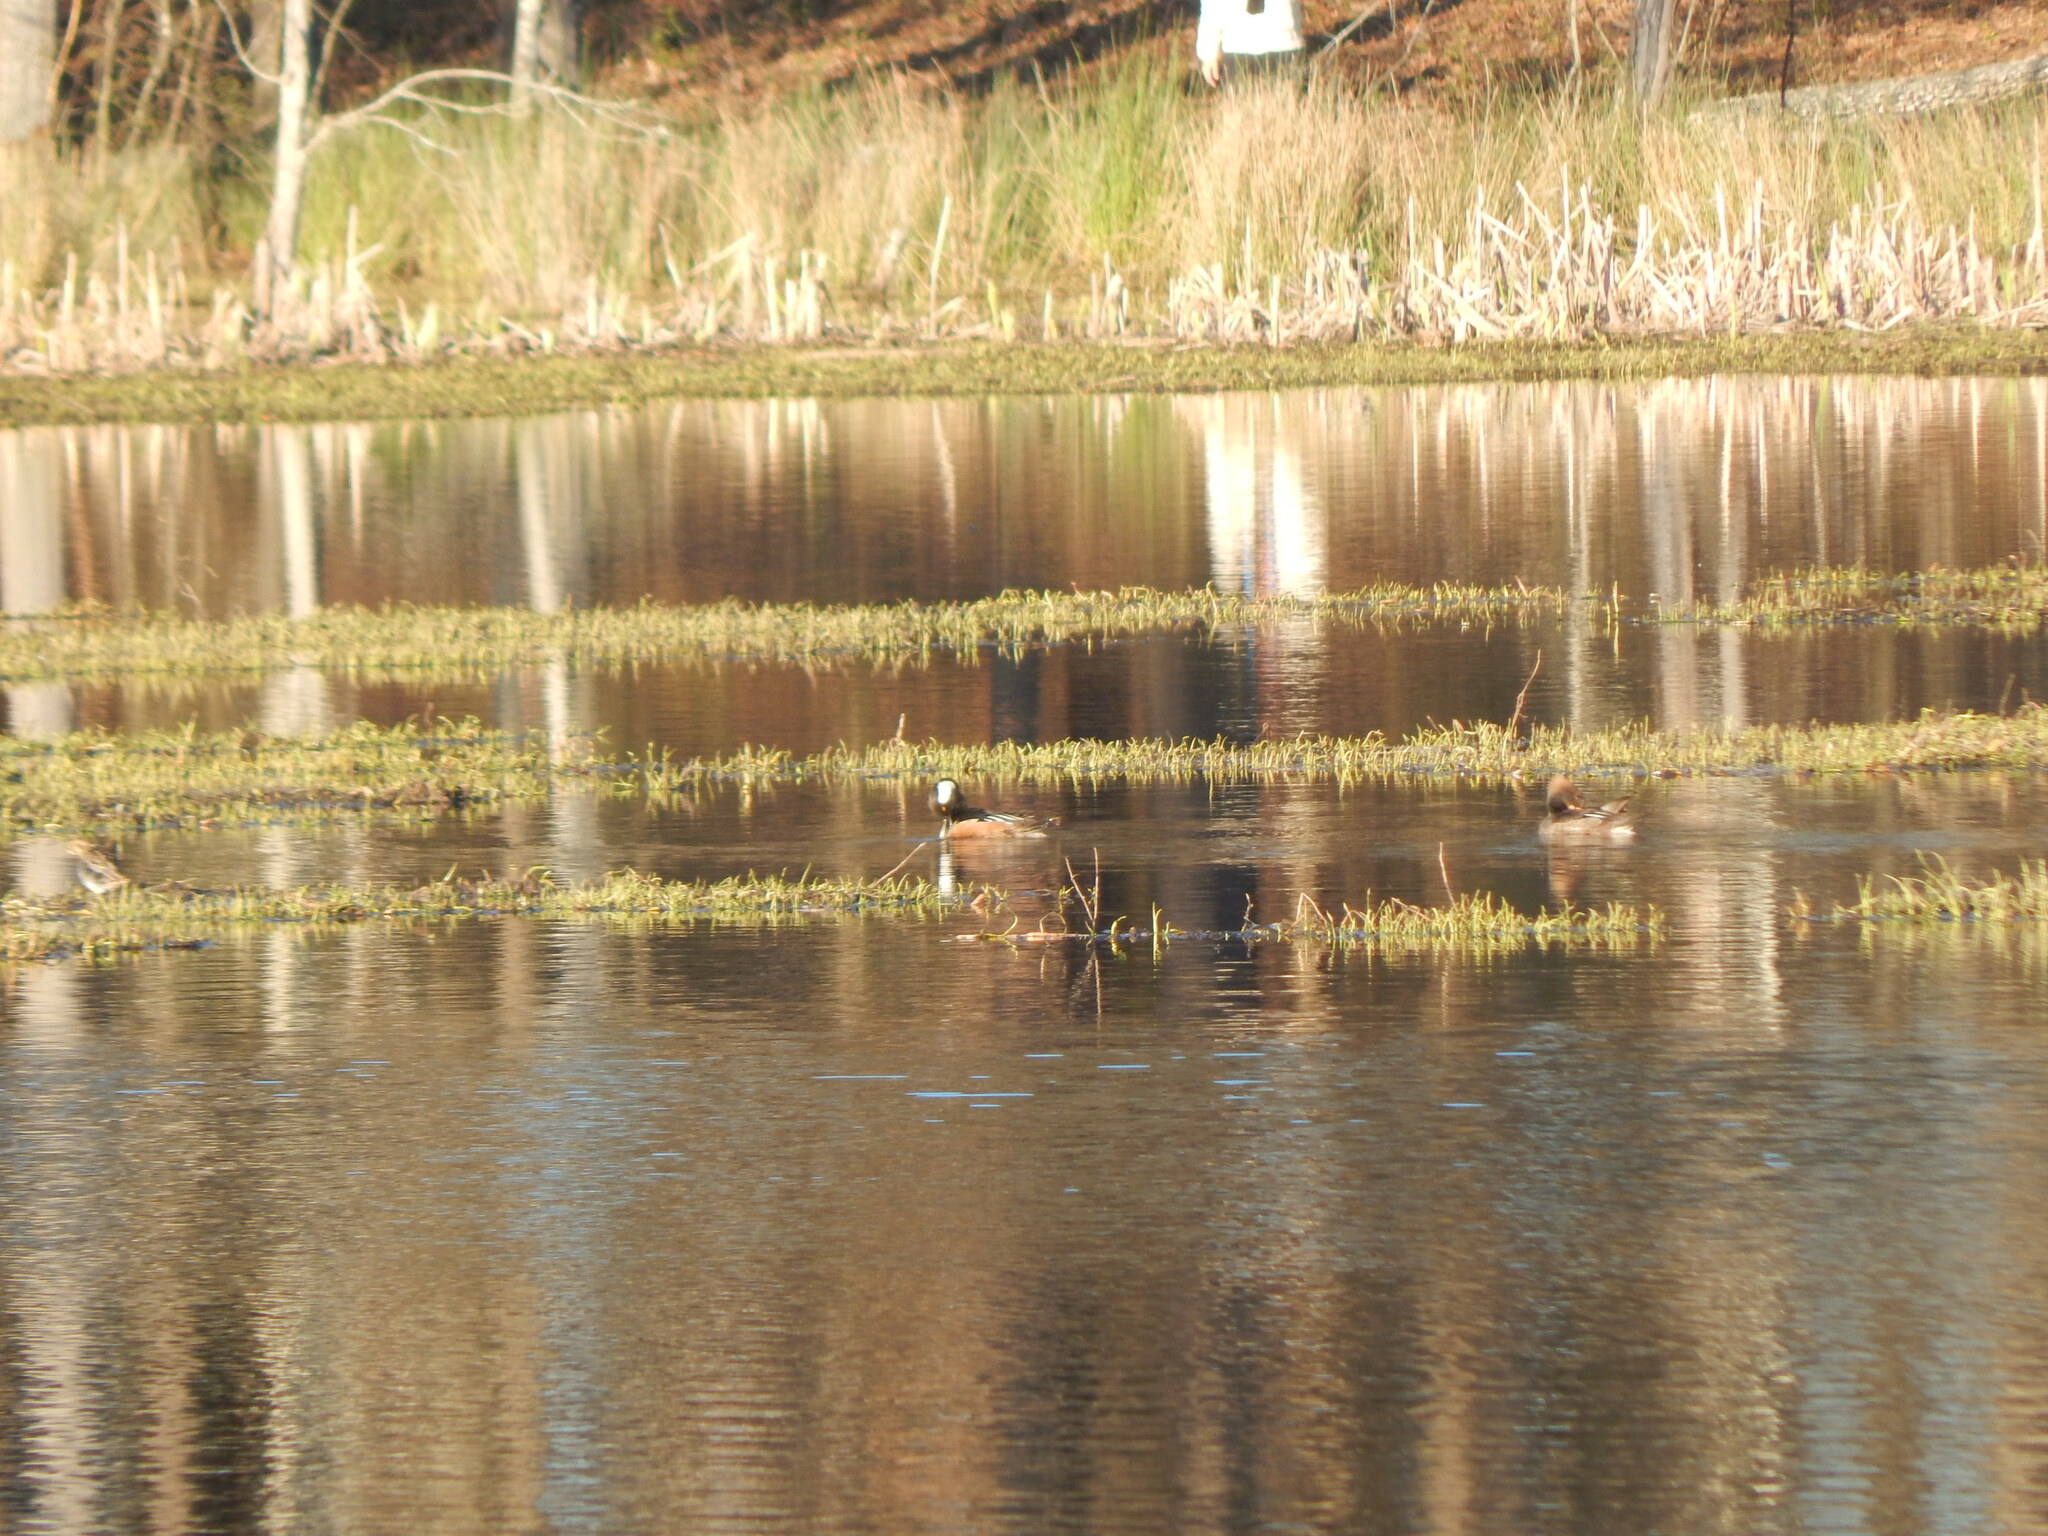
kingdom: Animalia
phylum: Chordata
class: Aves
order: Anseriformes
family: Anatidae
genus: Lophodytes
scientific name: Lophodytes cucullatus
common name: Hooded merganser
